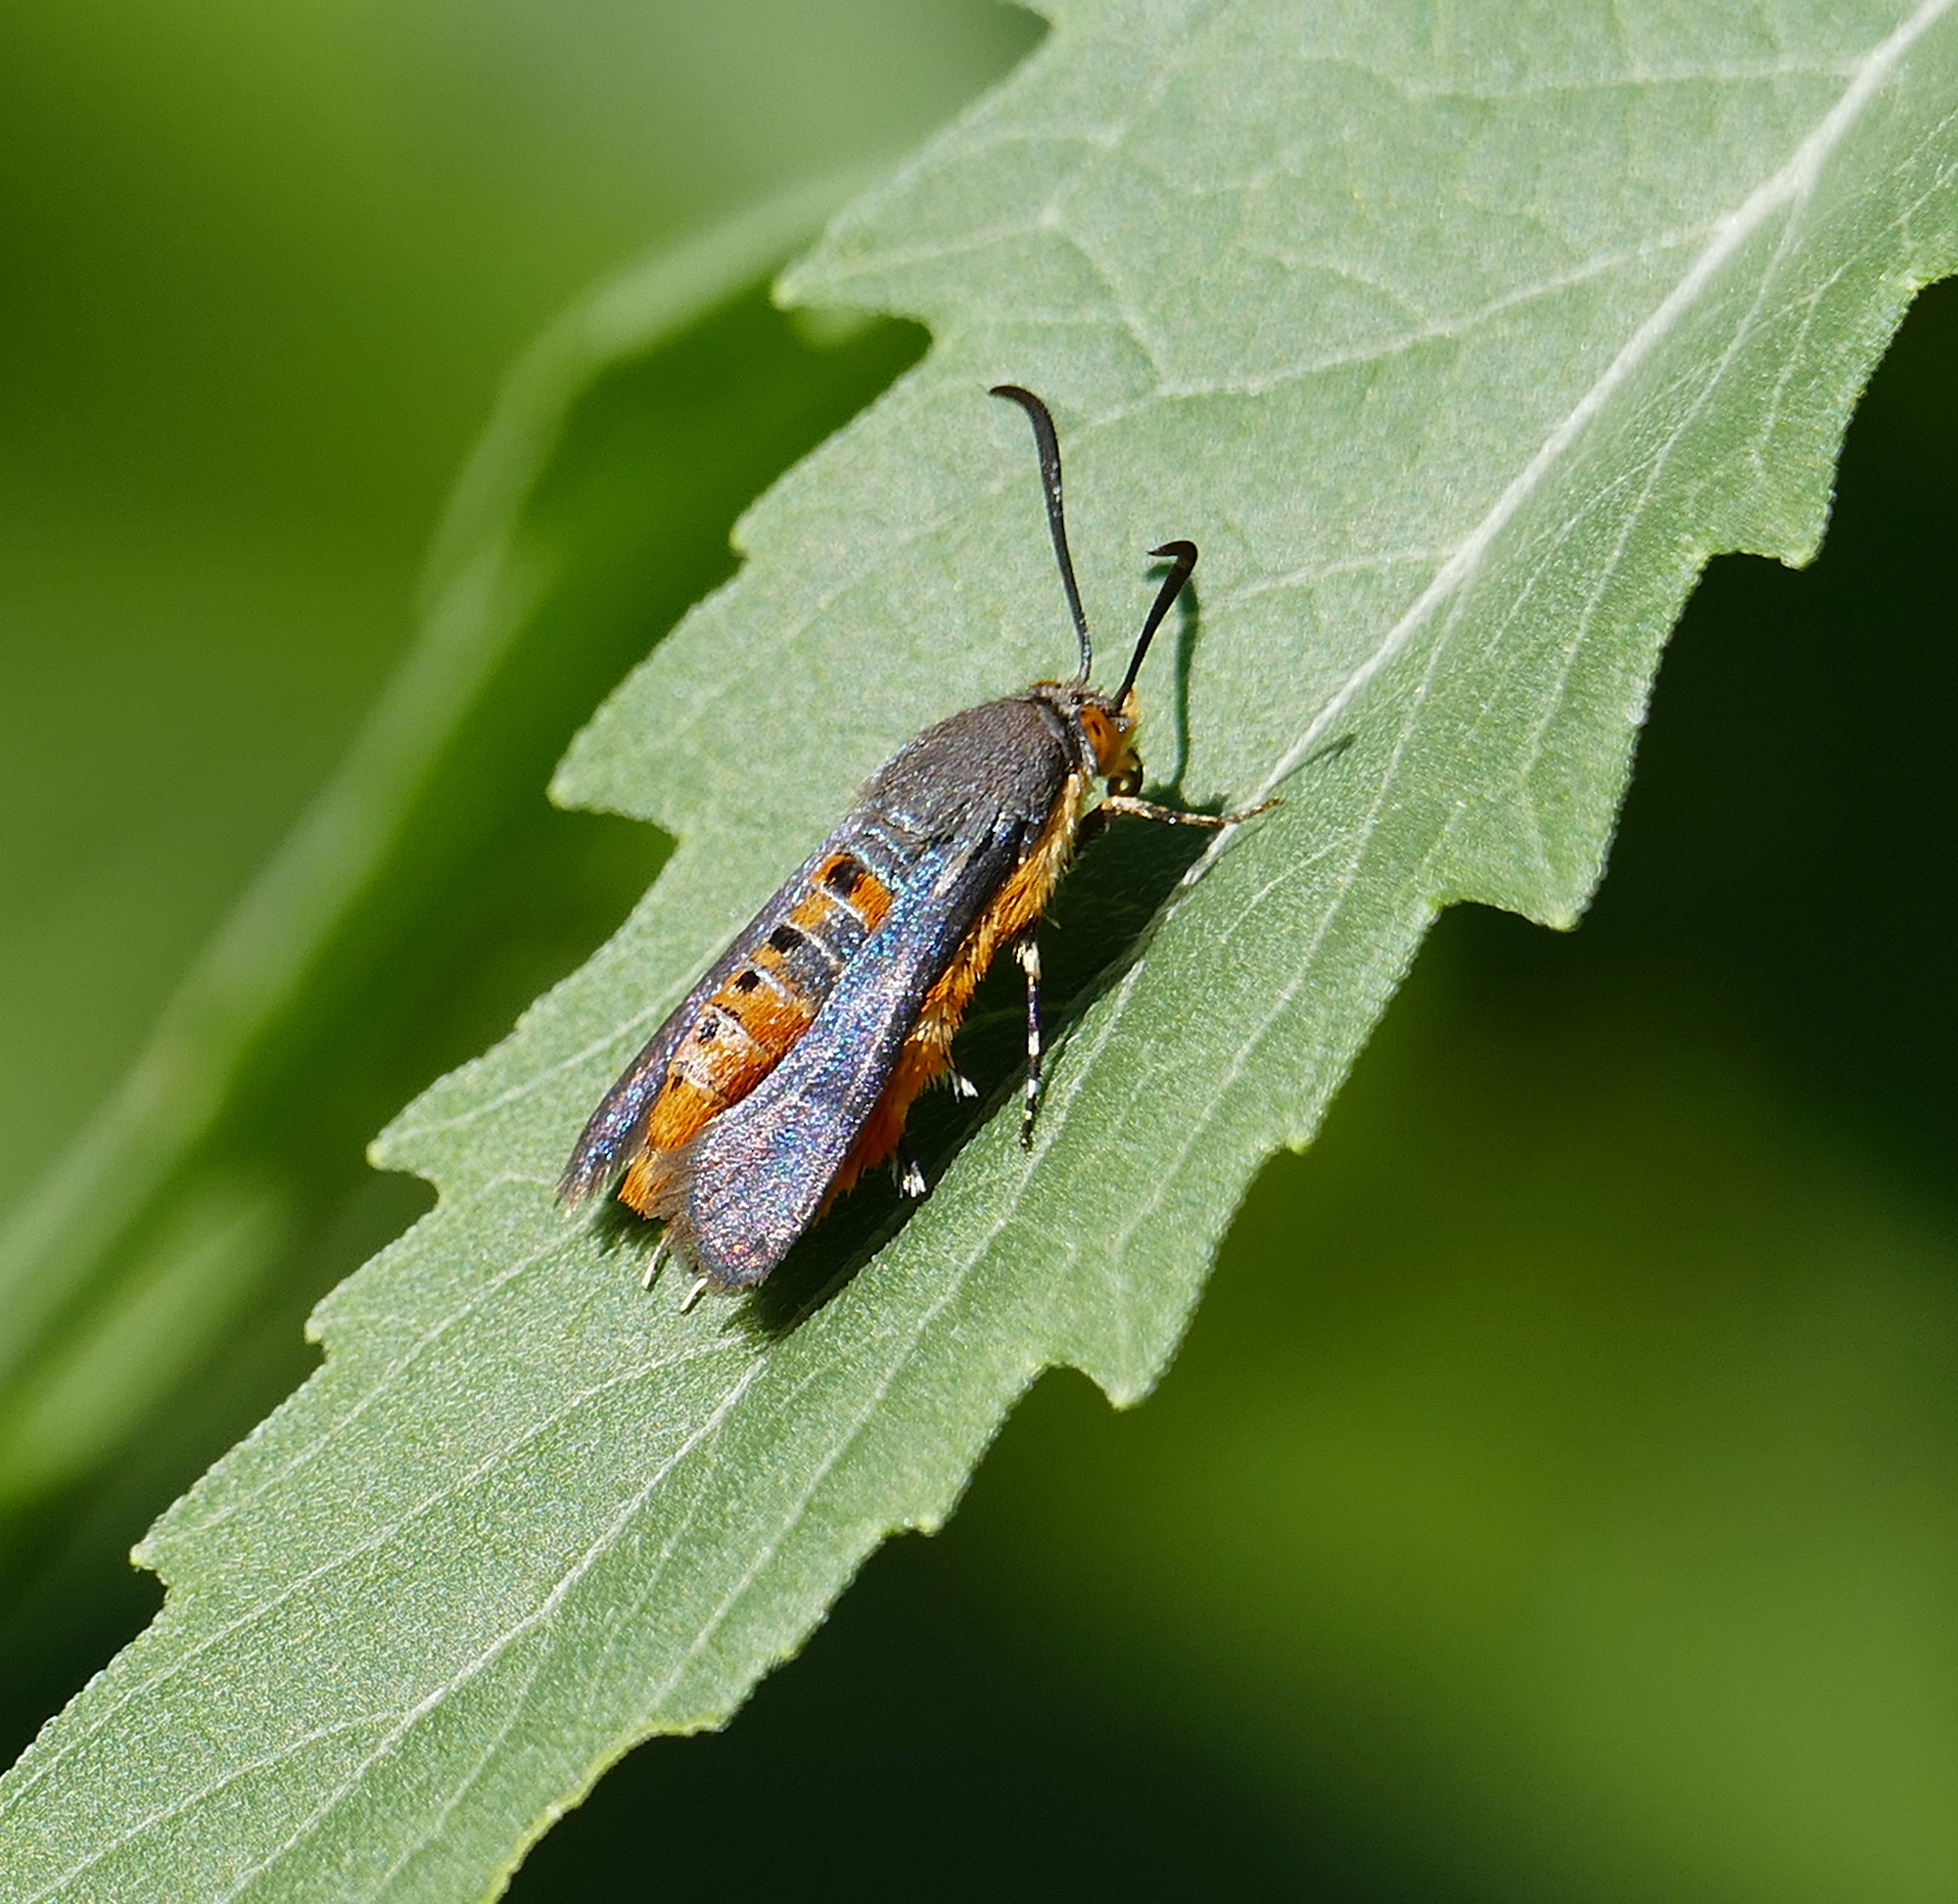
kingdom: Animalia
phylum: Arthropoda
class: Insecta
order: Lepidoptera
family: Sesiidae
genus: Eichlinia
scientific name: Eichlinia calabaza
